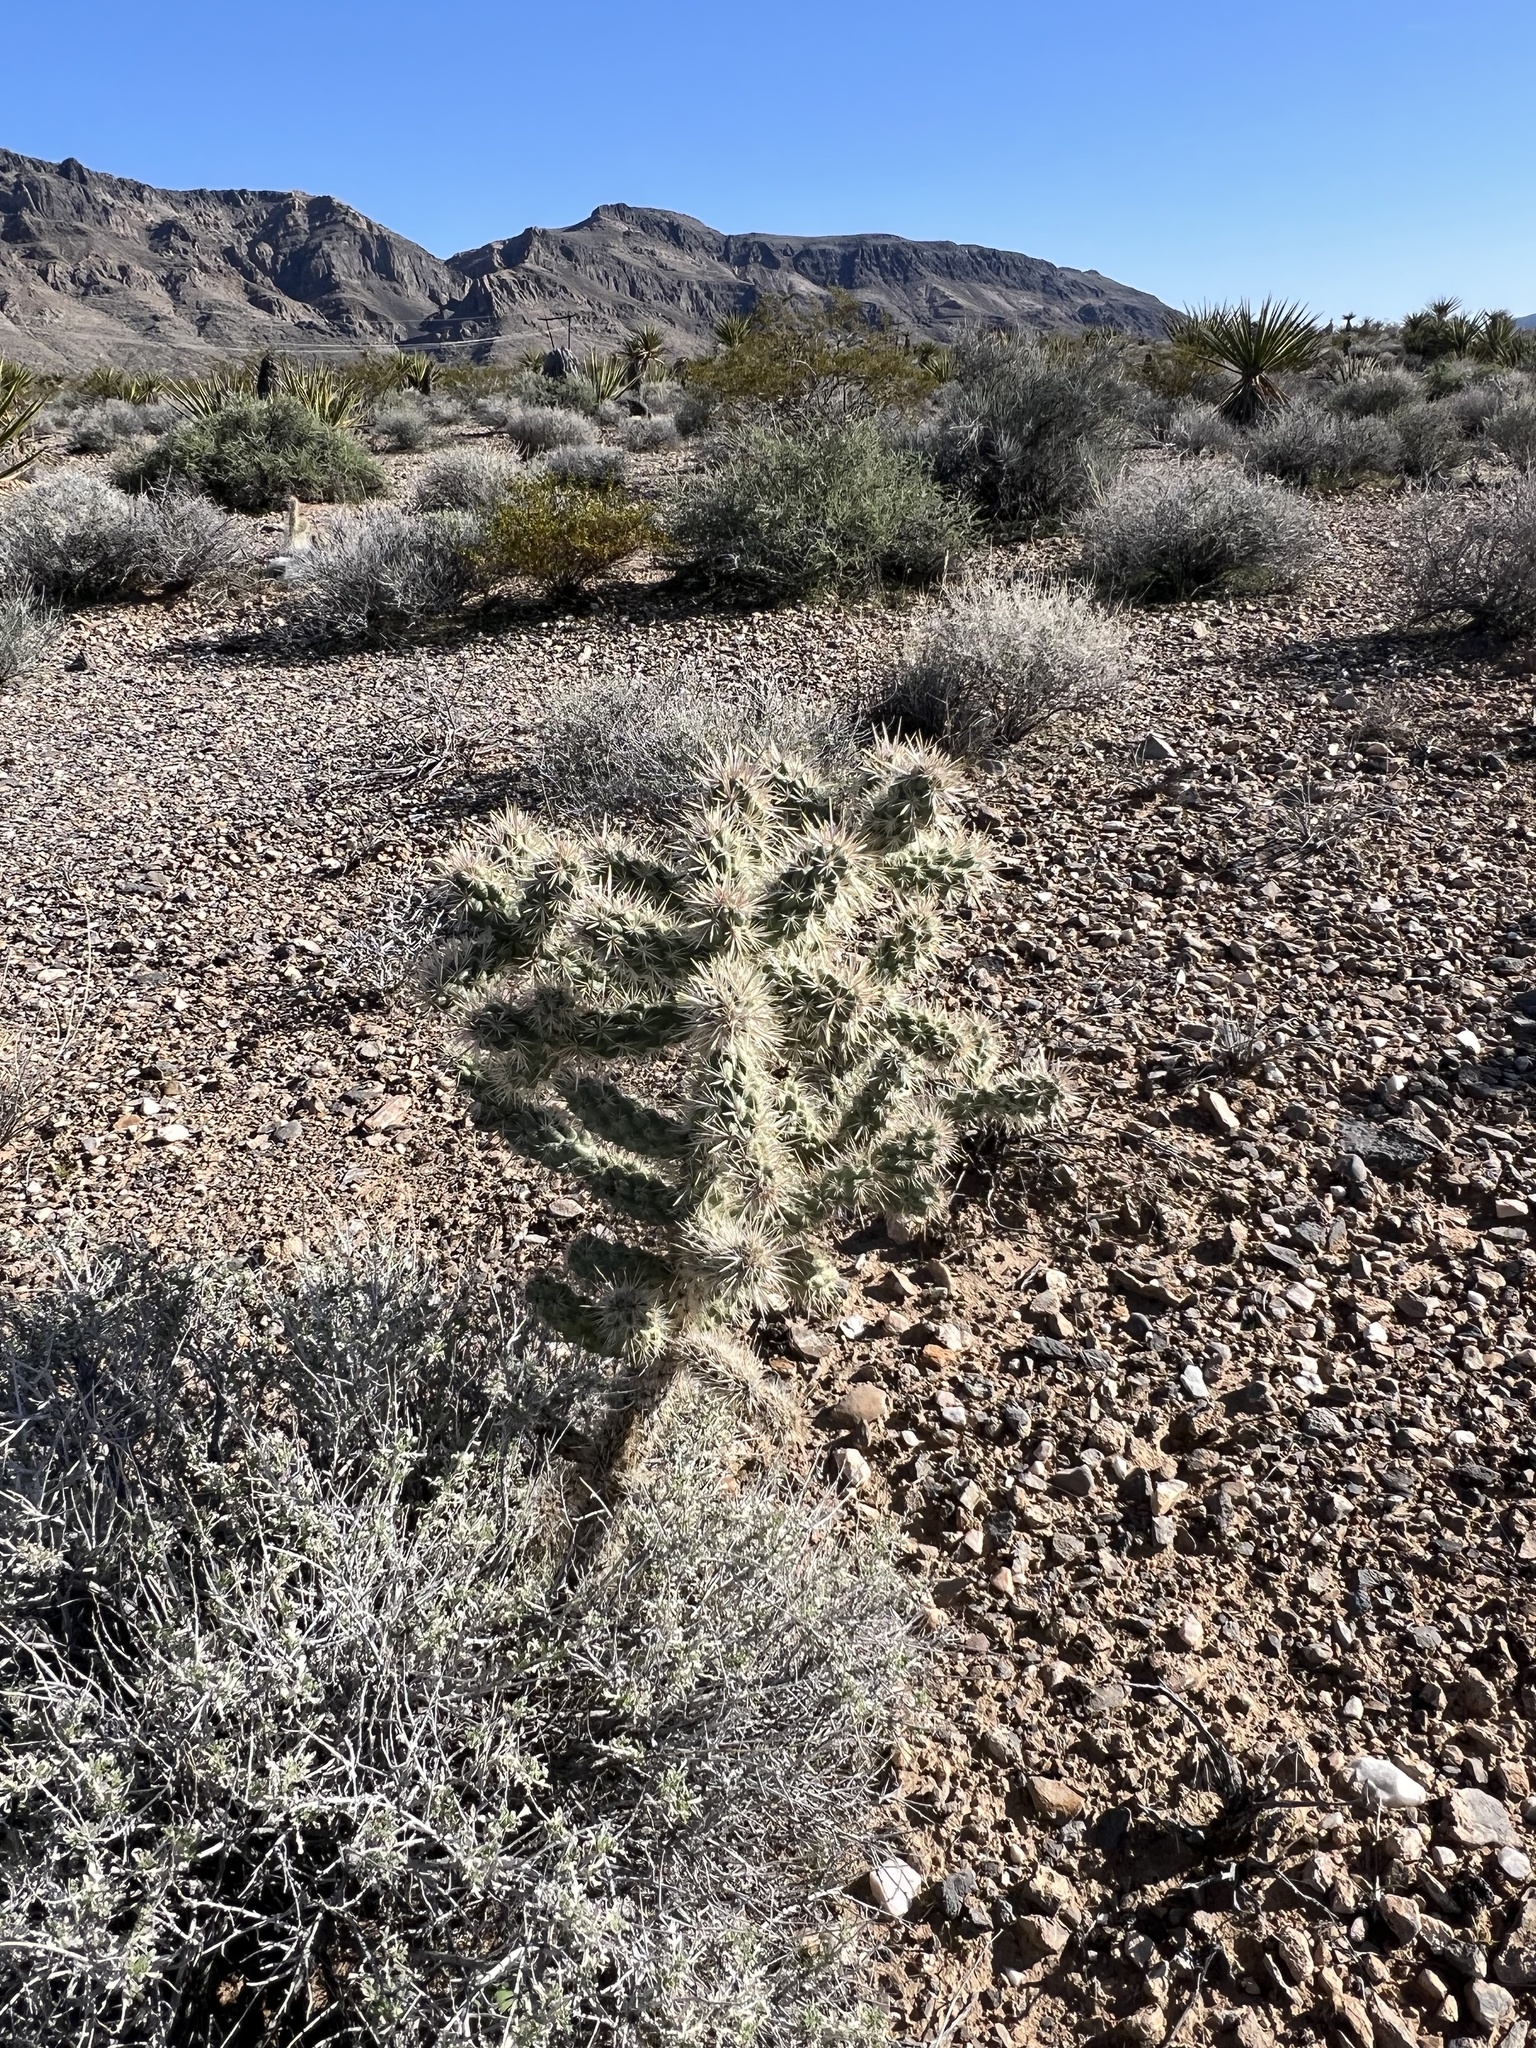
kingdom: Plantae
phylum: Tracheophyta
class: Magnoliopsida
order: Caryophyllales
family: Cactaceae
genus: Cylindropuntia
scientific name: Cylindropuntia echinocarpa
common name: Ground cholla
